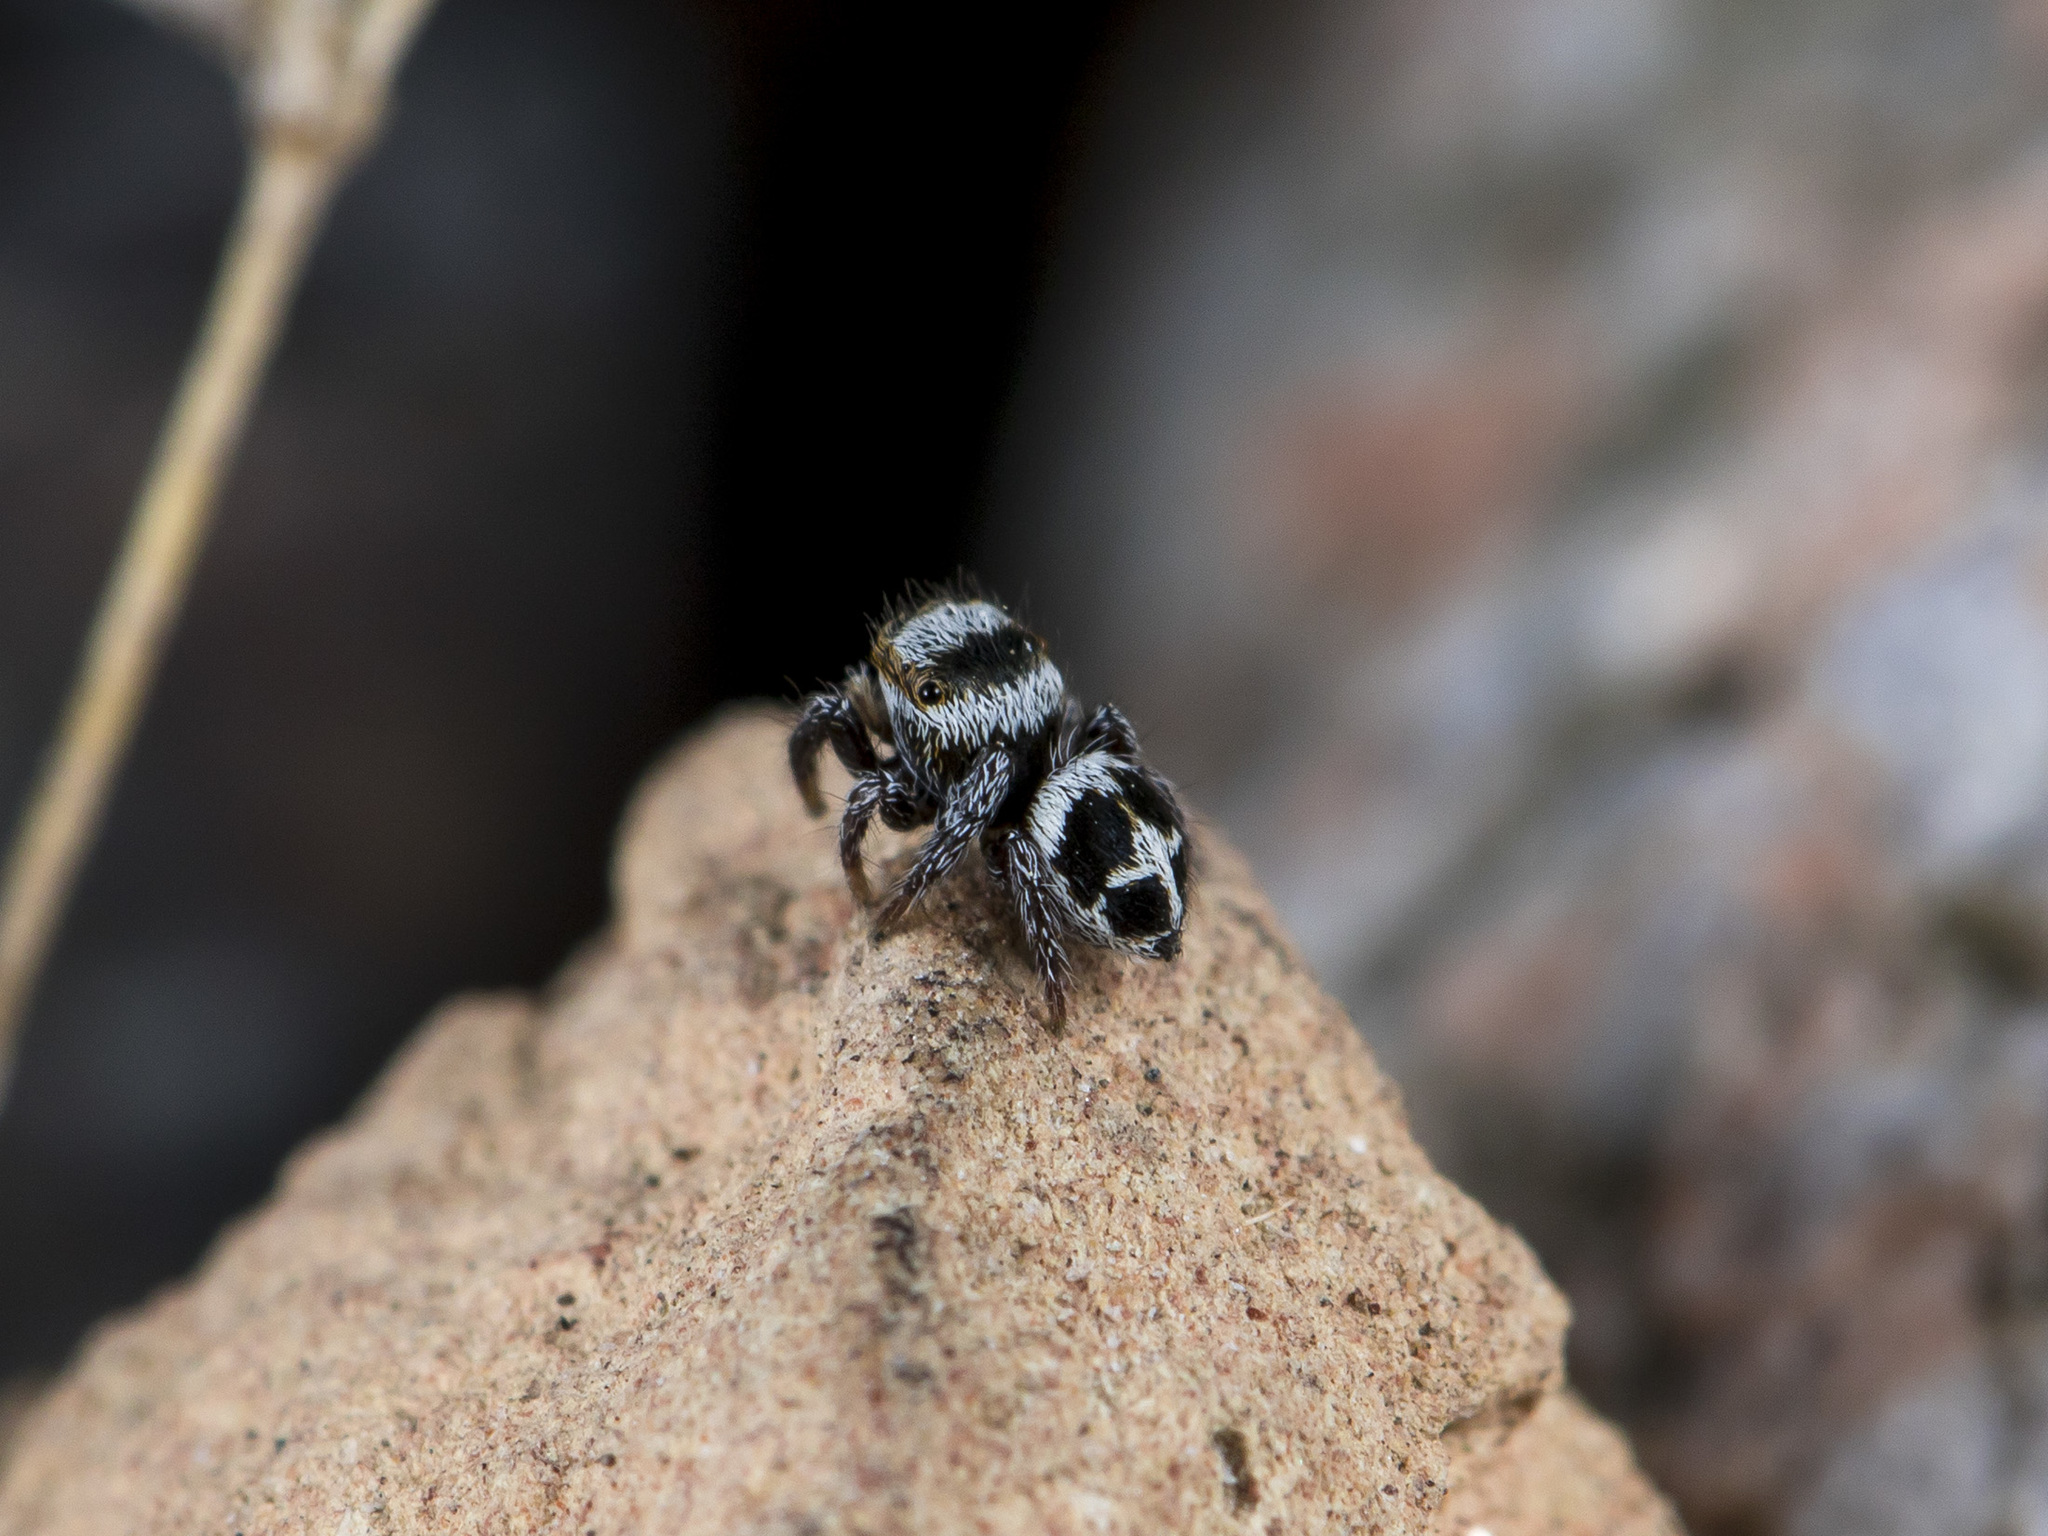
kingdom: Animalia
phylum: Arthropoda
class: Arachnida
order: Araneae
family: Salticidae
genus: Pellenes
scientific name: Pellenes geniculatus
